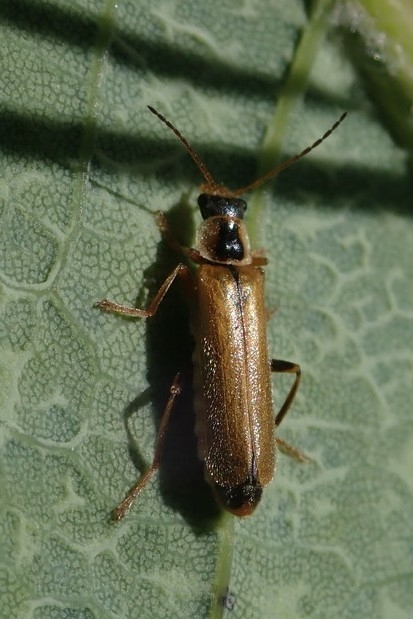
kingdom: Animalia
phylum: Arthropoda
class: Insecta
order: Coleoptera
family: Cantharidae
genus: Cantharis
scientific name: Cantharis decipiens
